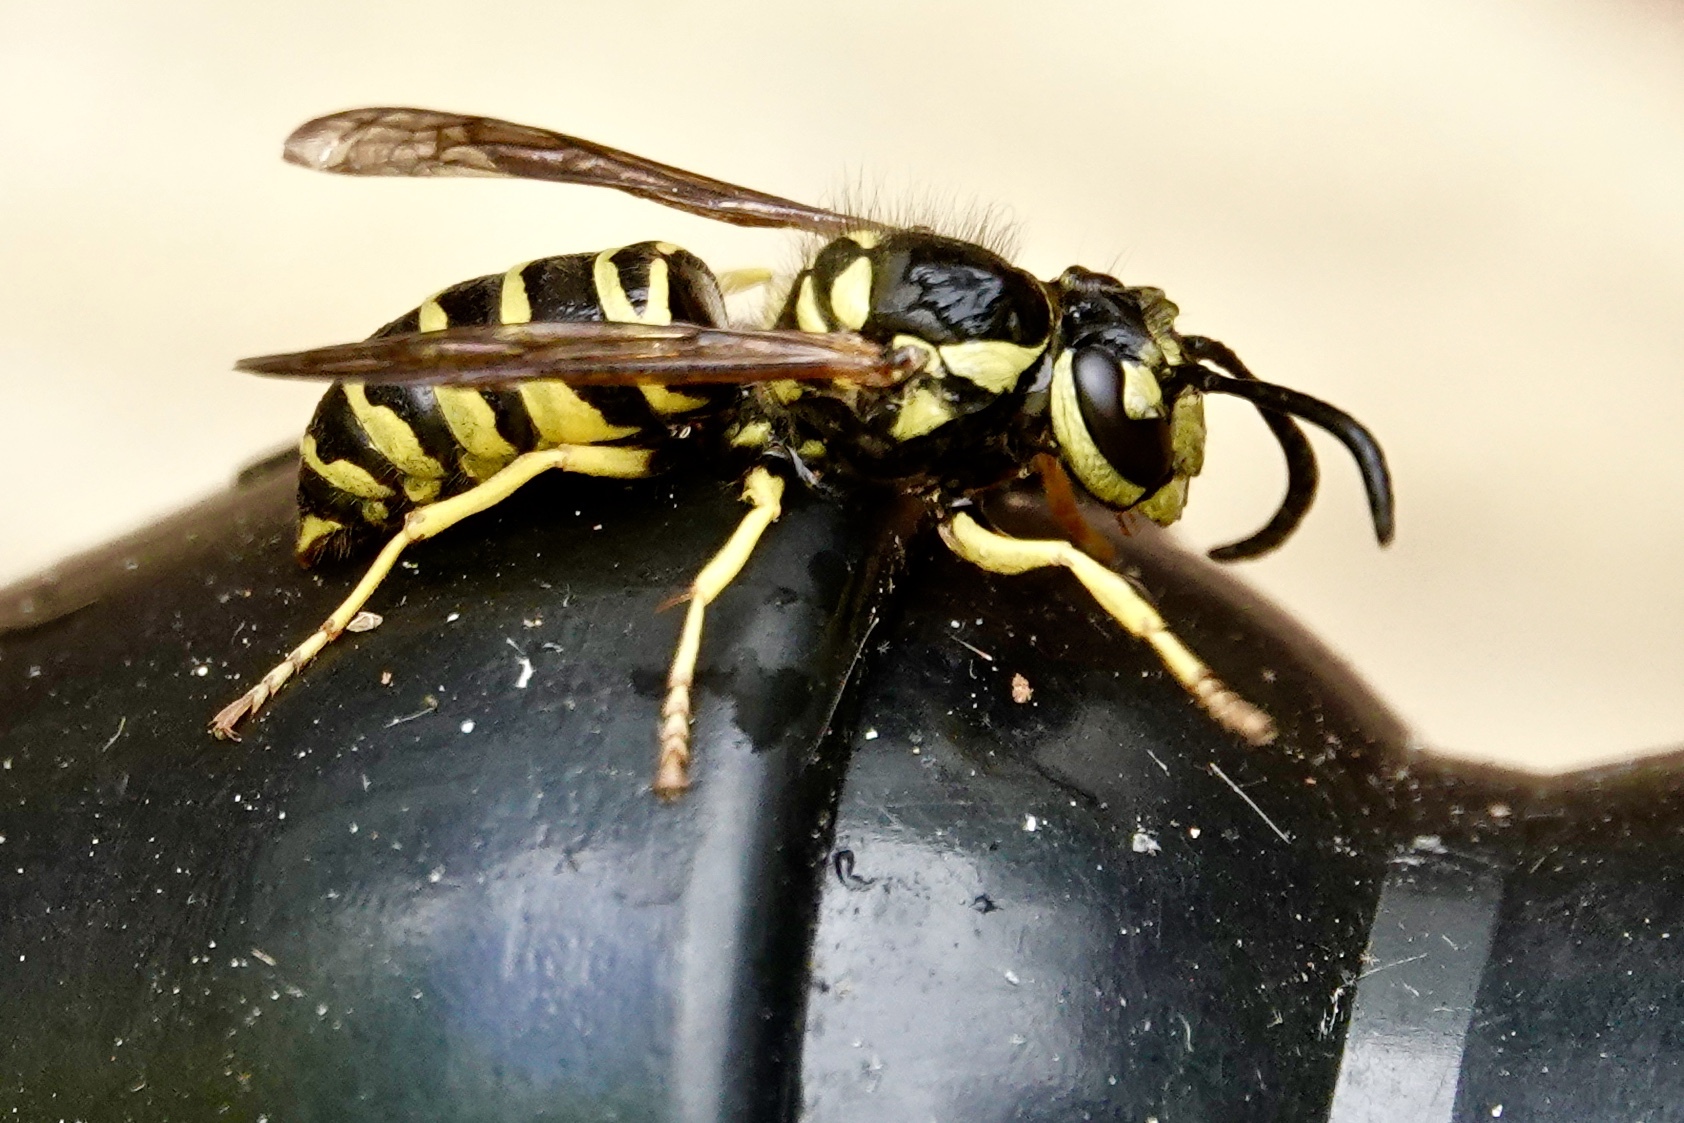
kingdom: Animalia
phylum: Arthropoda
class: Insecta
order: Hymenoptera
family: Vespidae
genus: Vespula
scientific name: Vespula maculifrons
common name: Eastern yellowjacket
